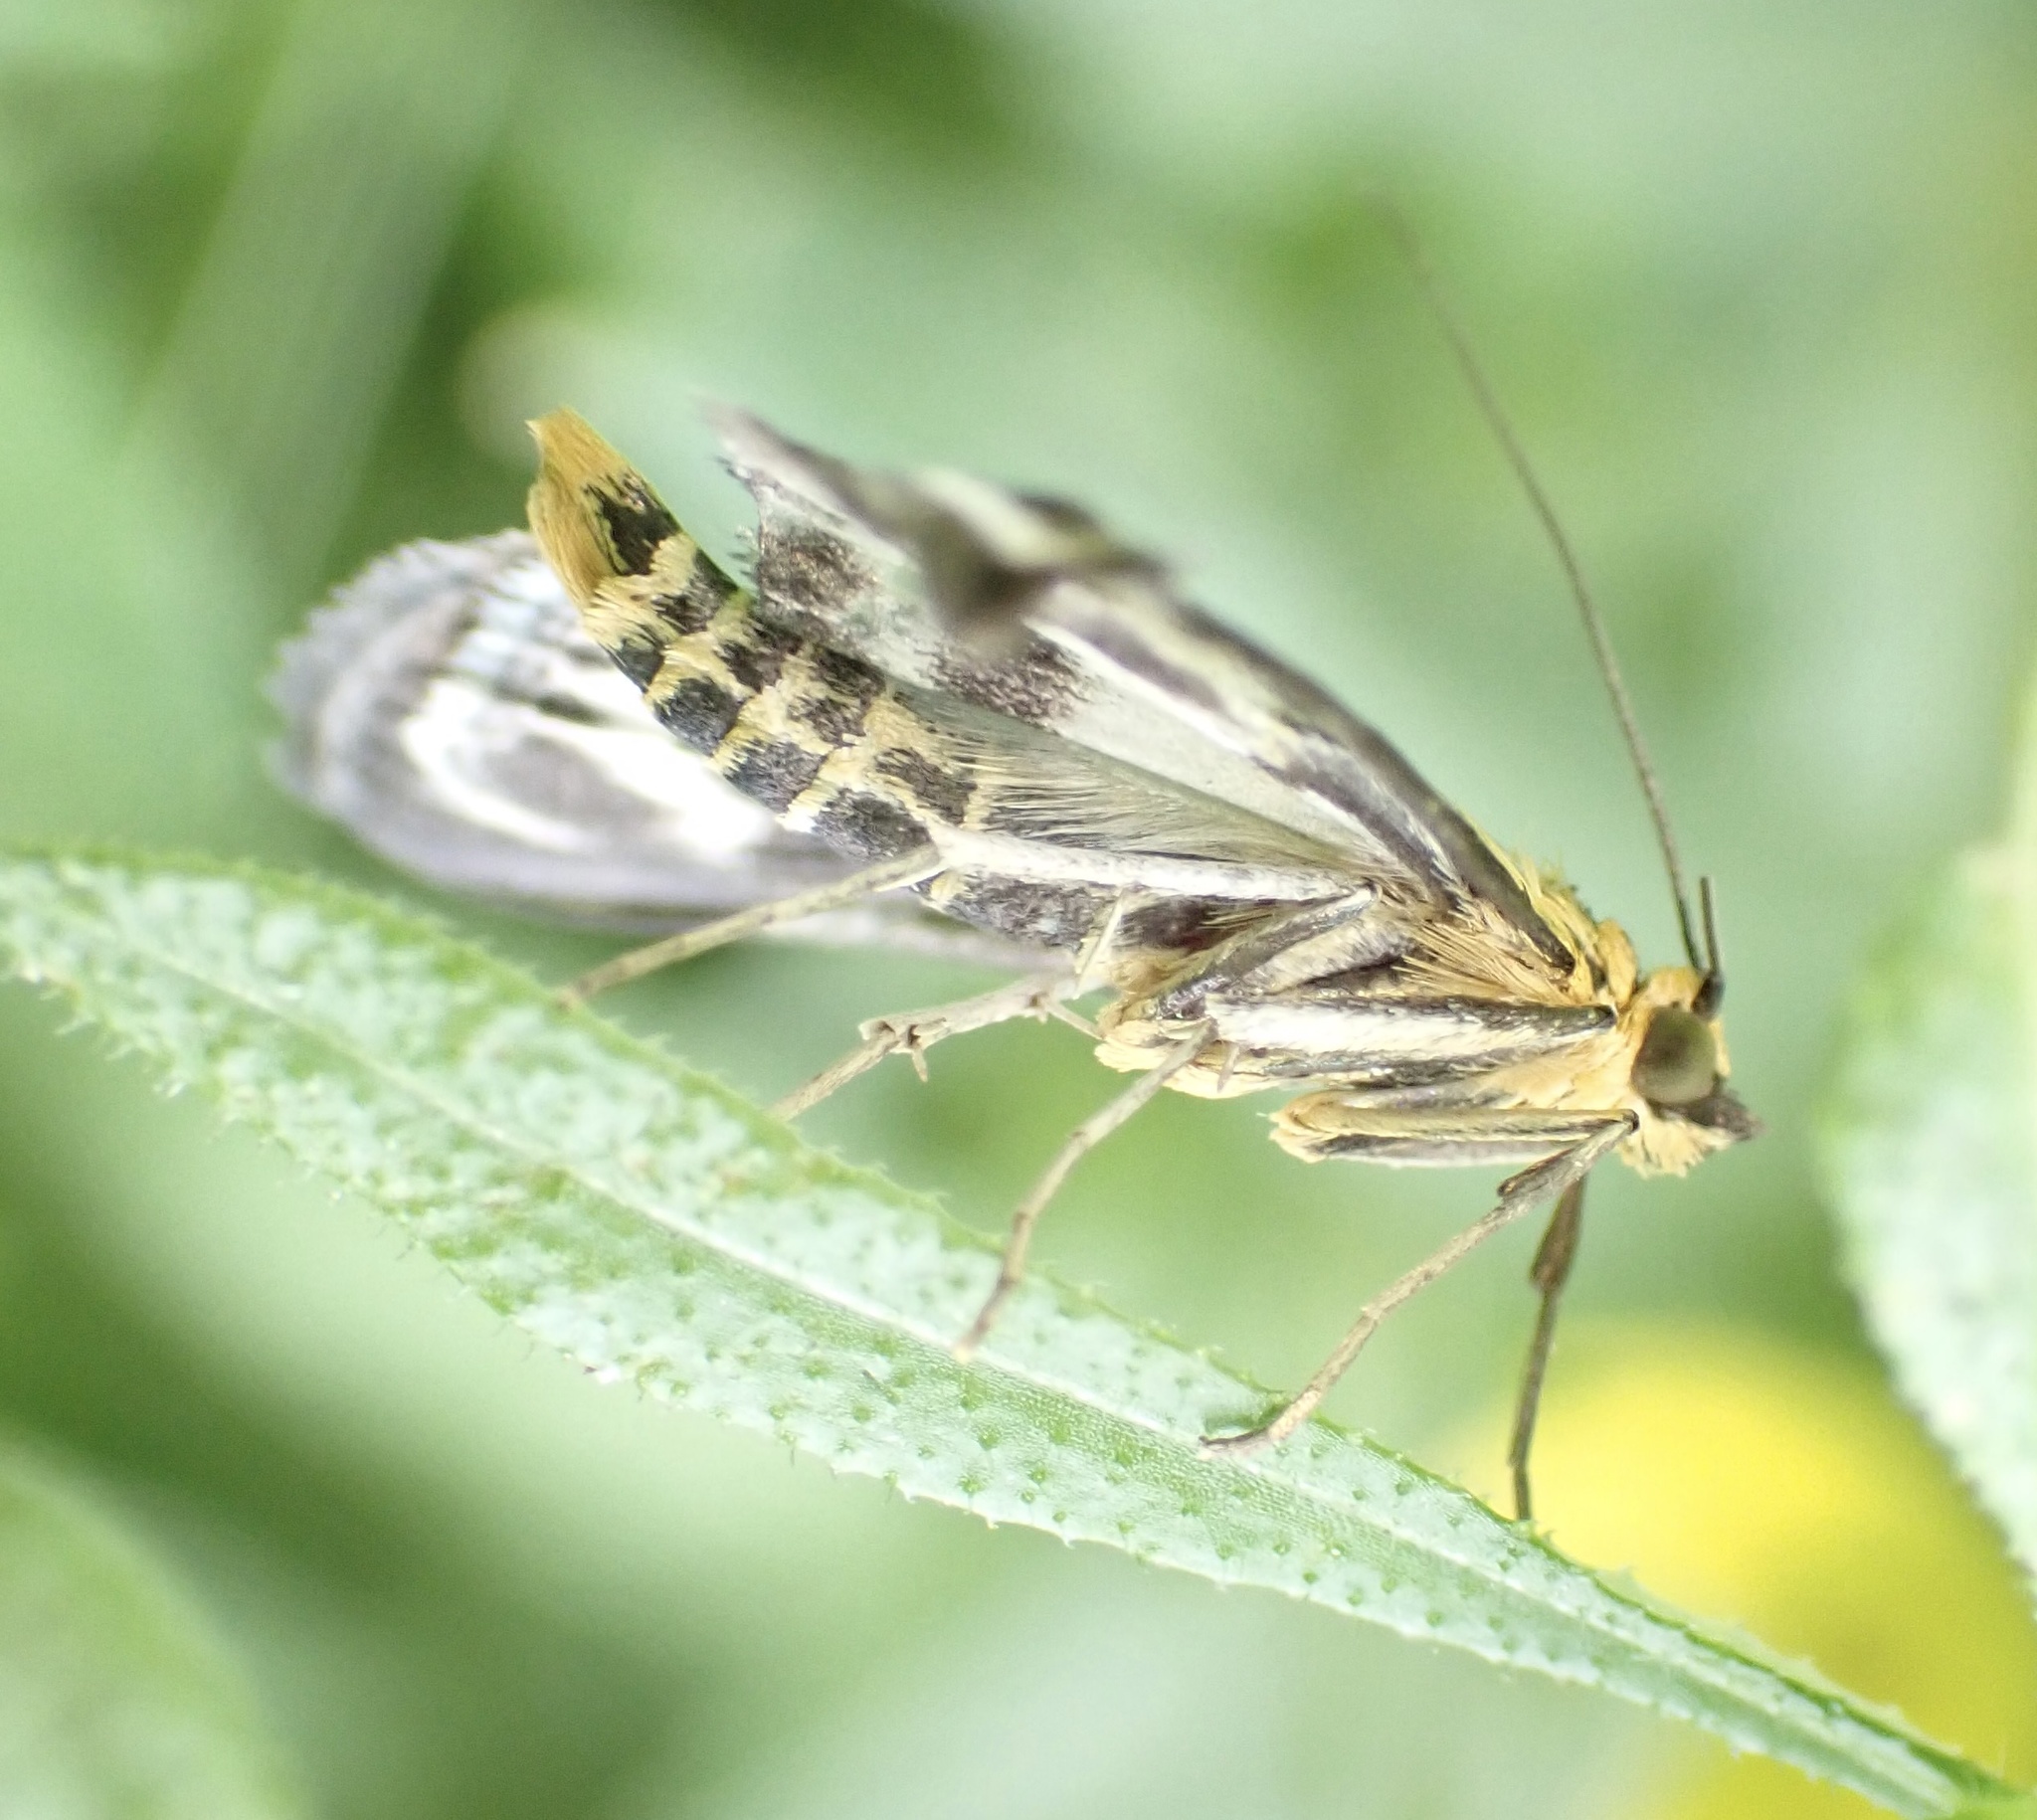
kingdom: Animalia
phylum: Arthropoda
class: Insecta
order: Lepidoptera
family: Crambidae
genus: Anania
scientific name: Anania hortulata
